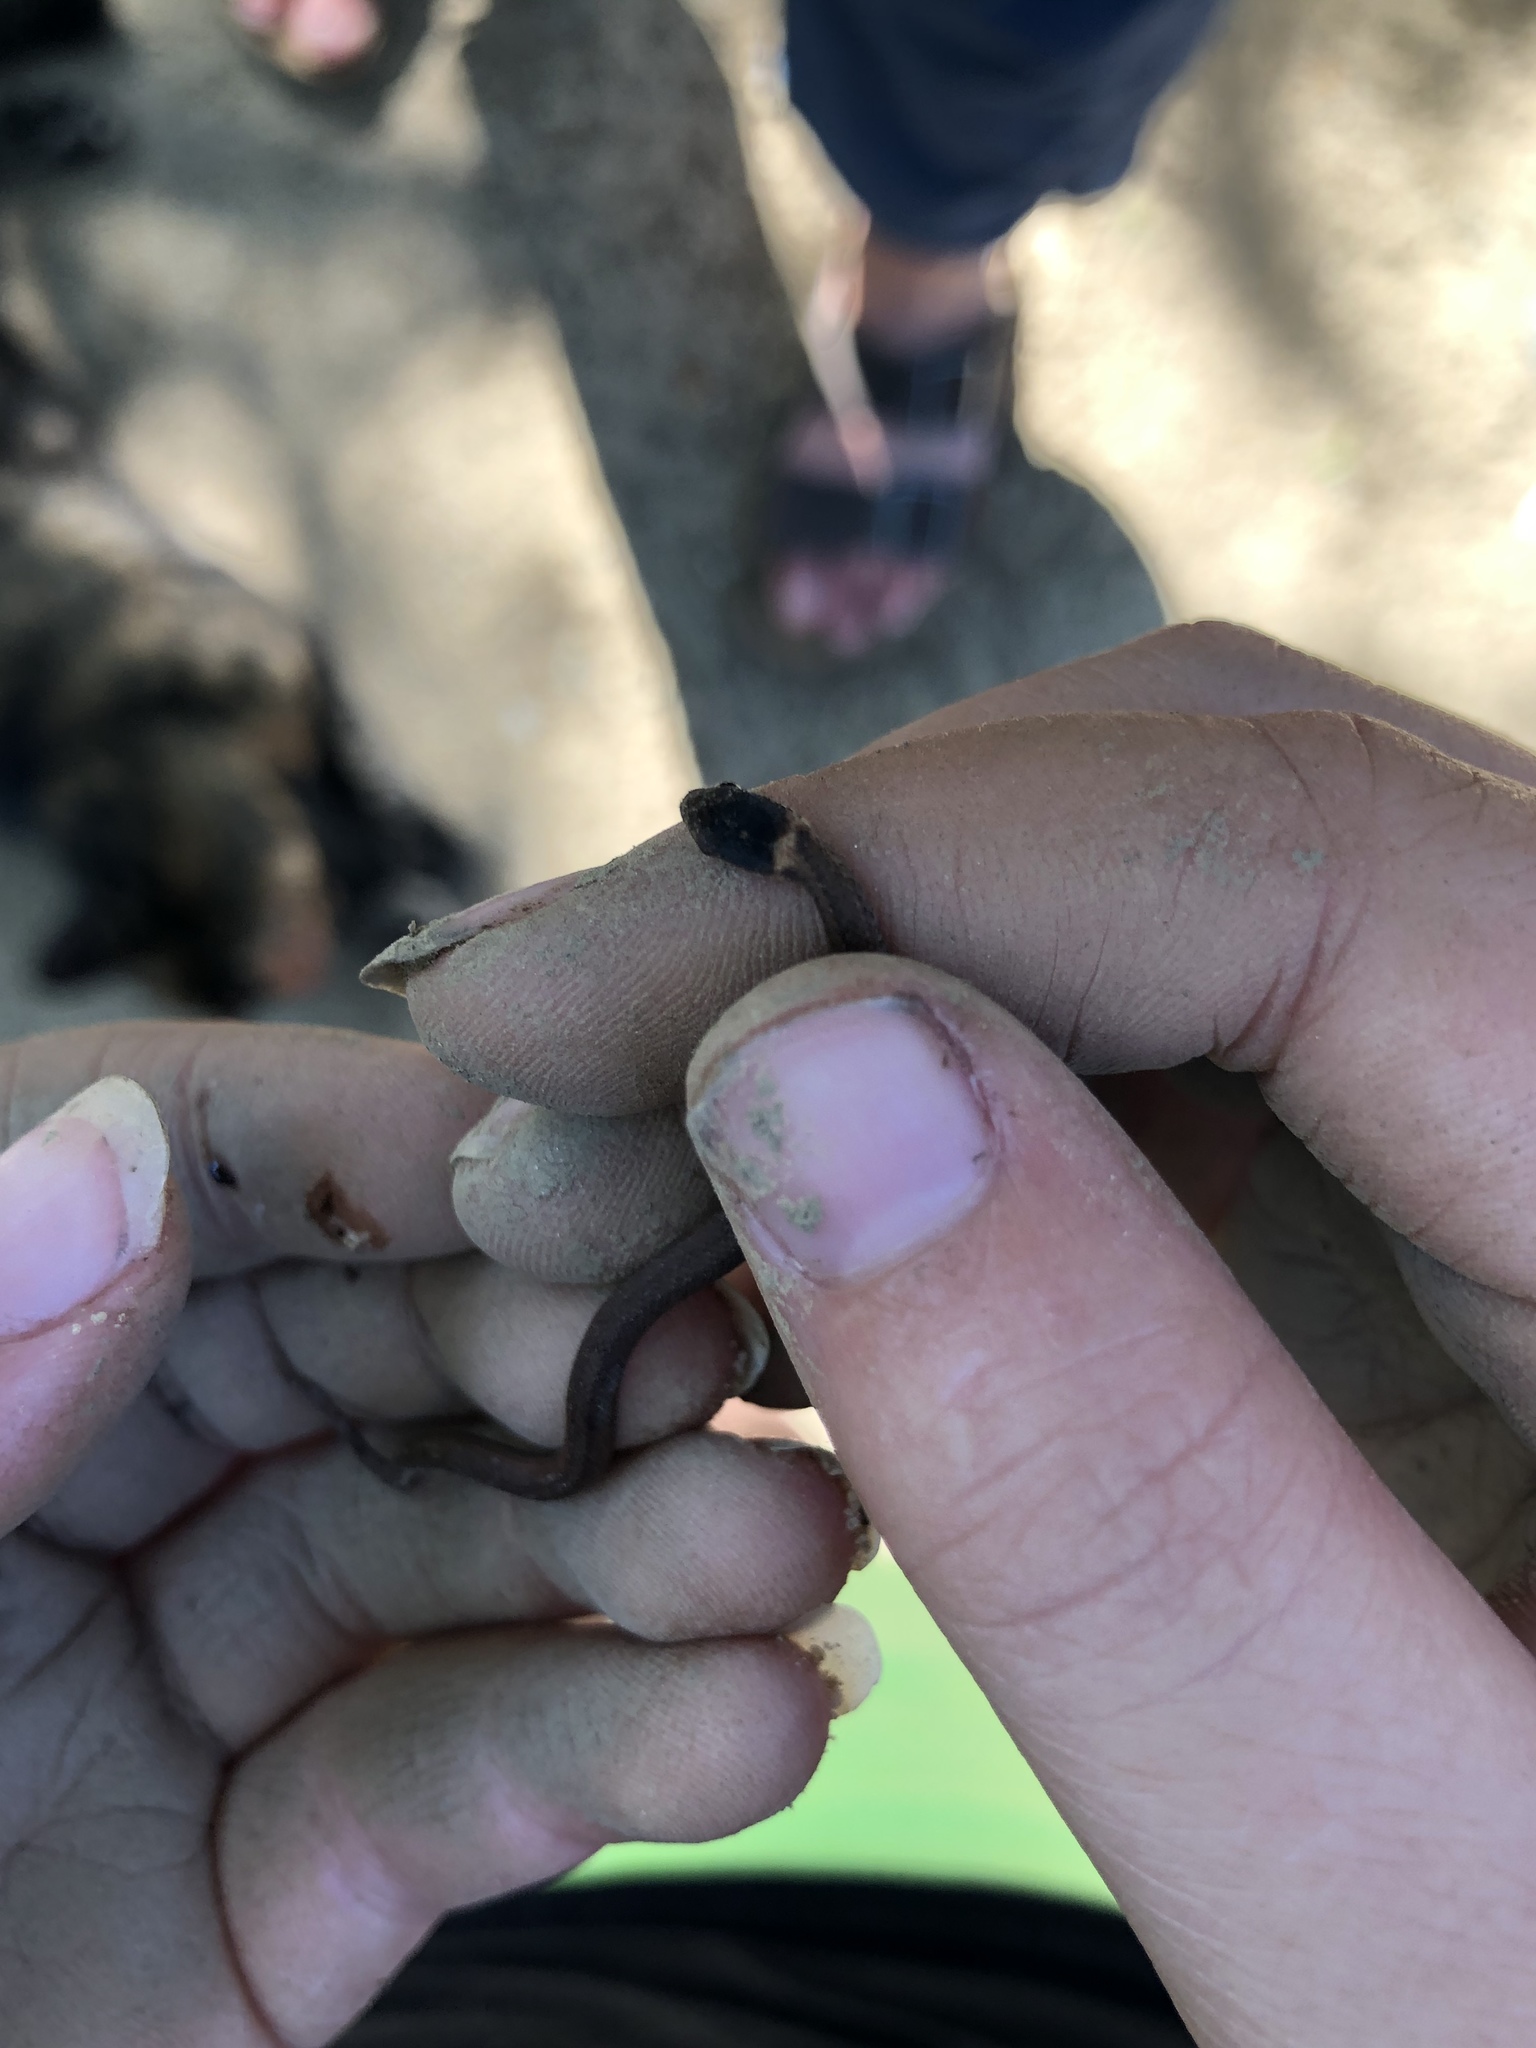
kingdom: Animalia
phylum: Chordata
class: Squamata
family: Colubridae
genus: Storeria
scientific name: Storeria occipitomaculata
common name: Redbelly snake
